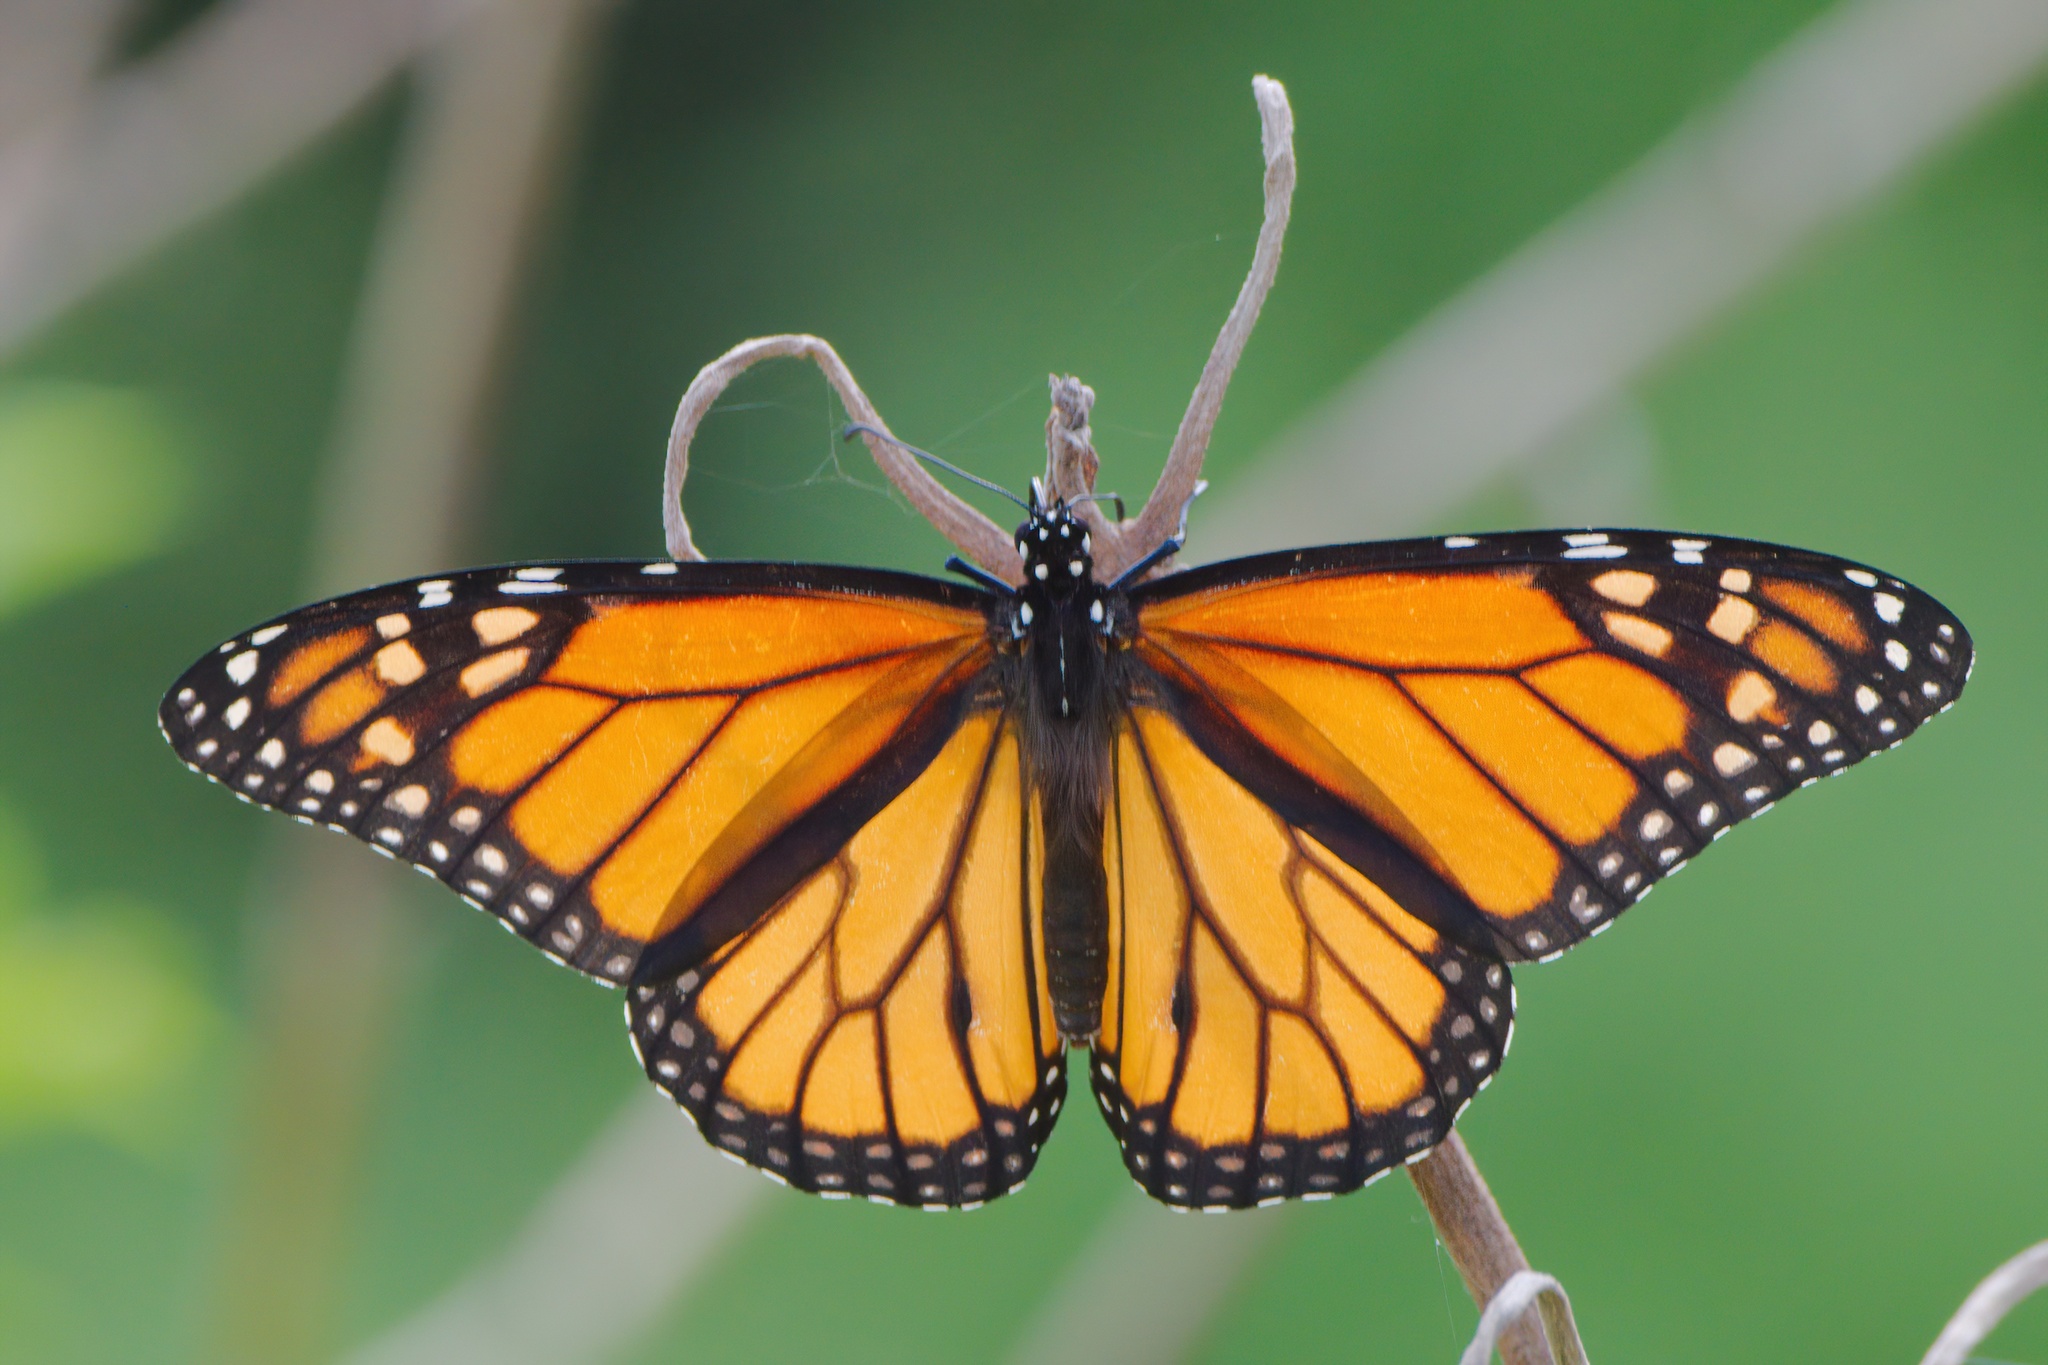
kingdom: Animalia
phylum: Arthropoda
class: Insecta
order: Lepidoptera
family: Nymphalidae
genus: Danaus
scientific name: Danaus plexippus
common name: Monarch
